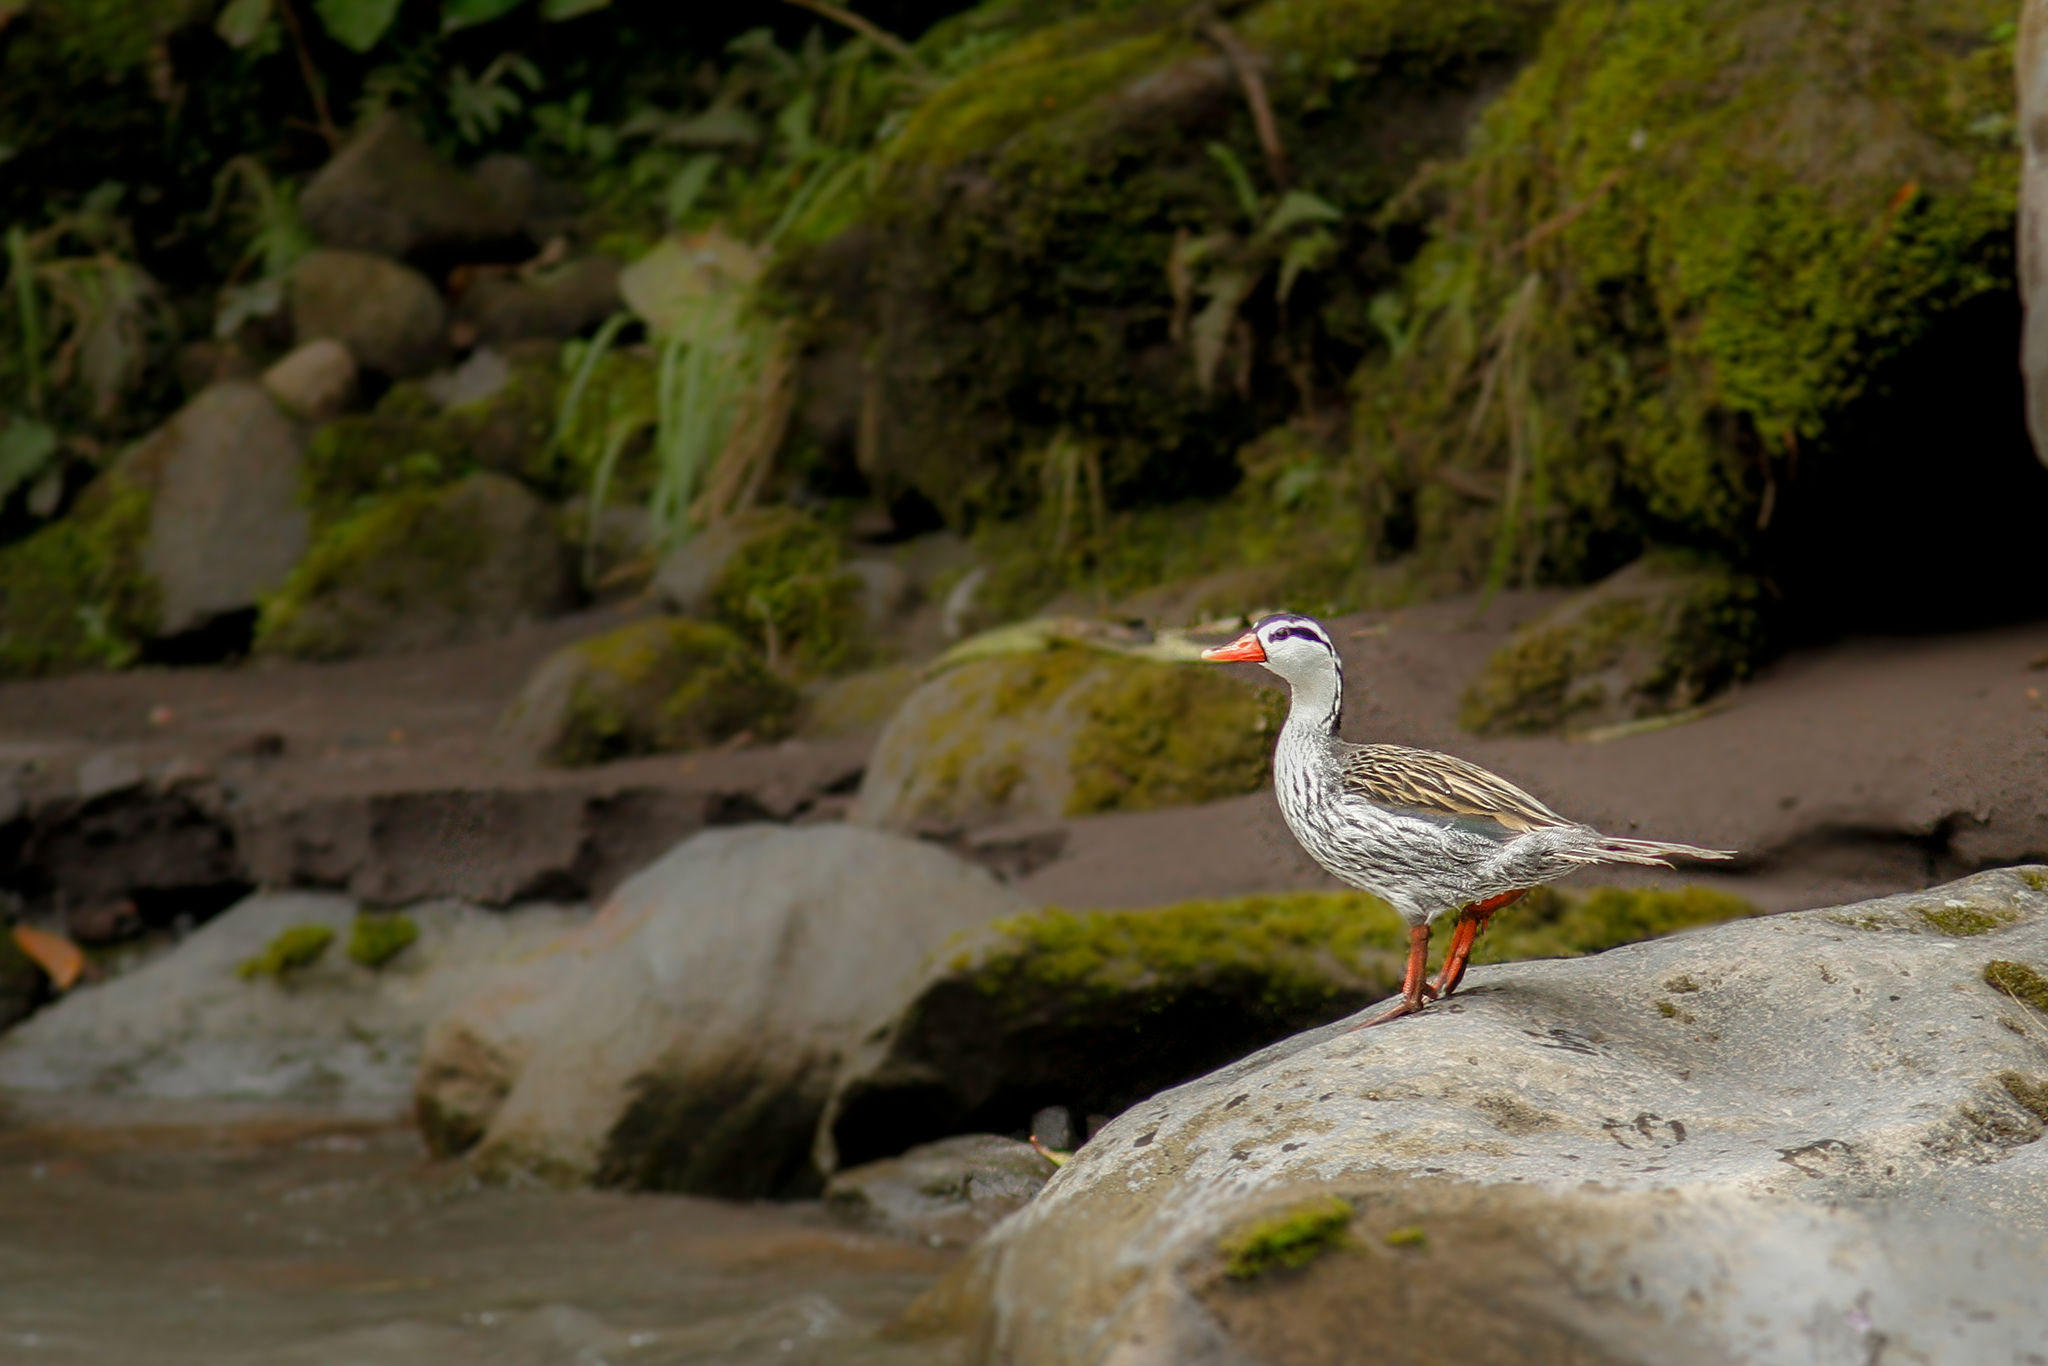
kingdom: Animalia
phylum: Chordata
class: Aves
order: Anseriformes
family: Anatidae
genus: Merganetta
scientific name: Merganetta armata
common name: Torrent duck
